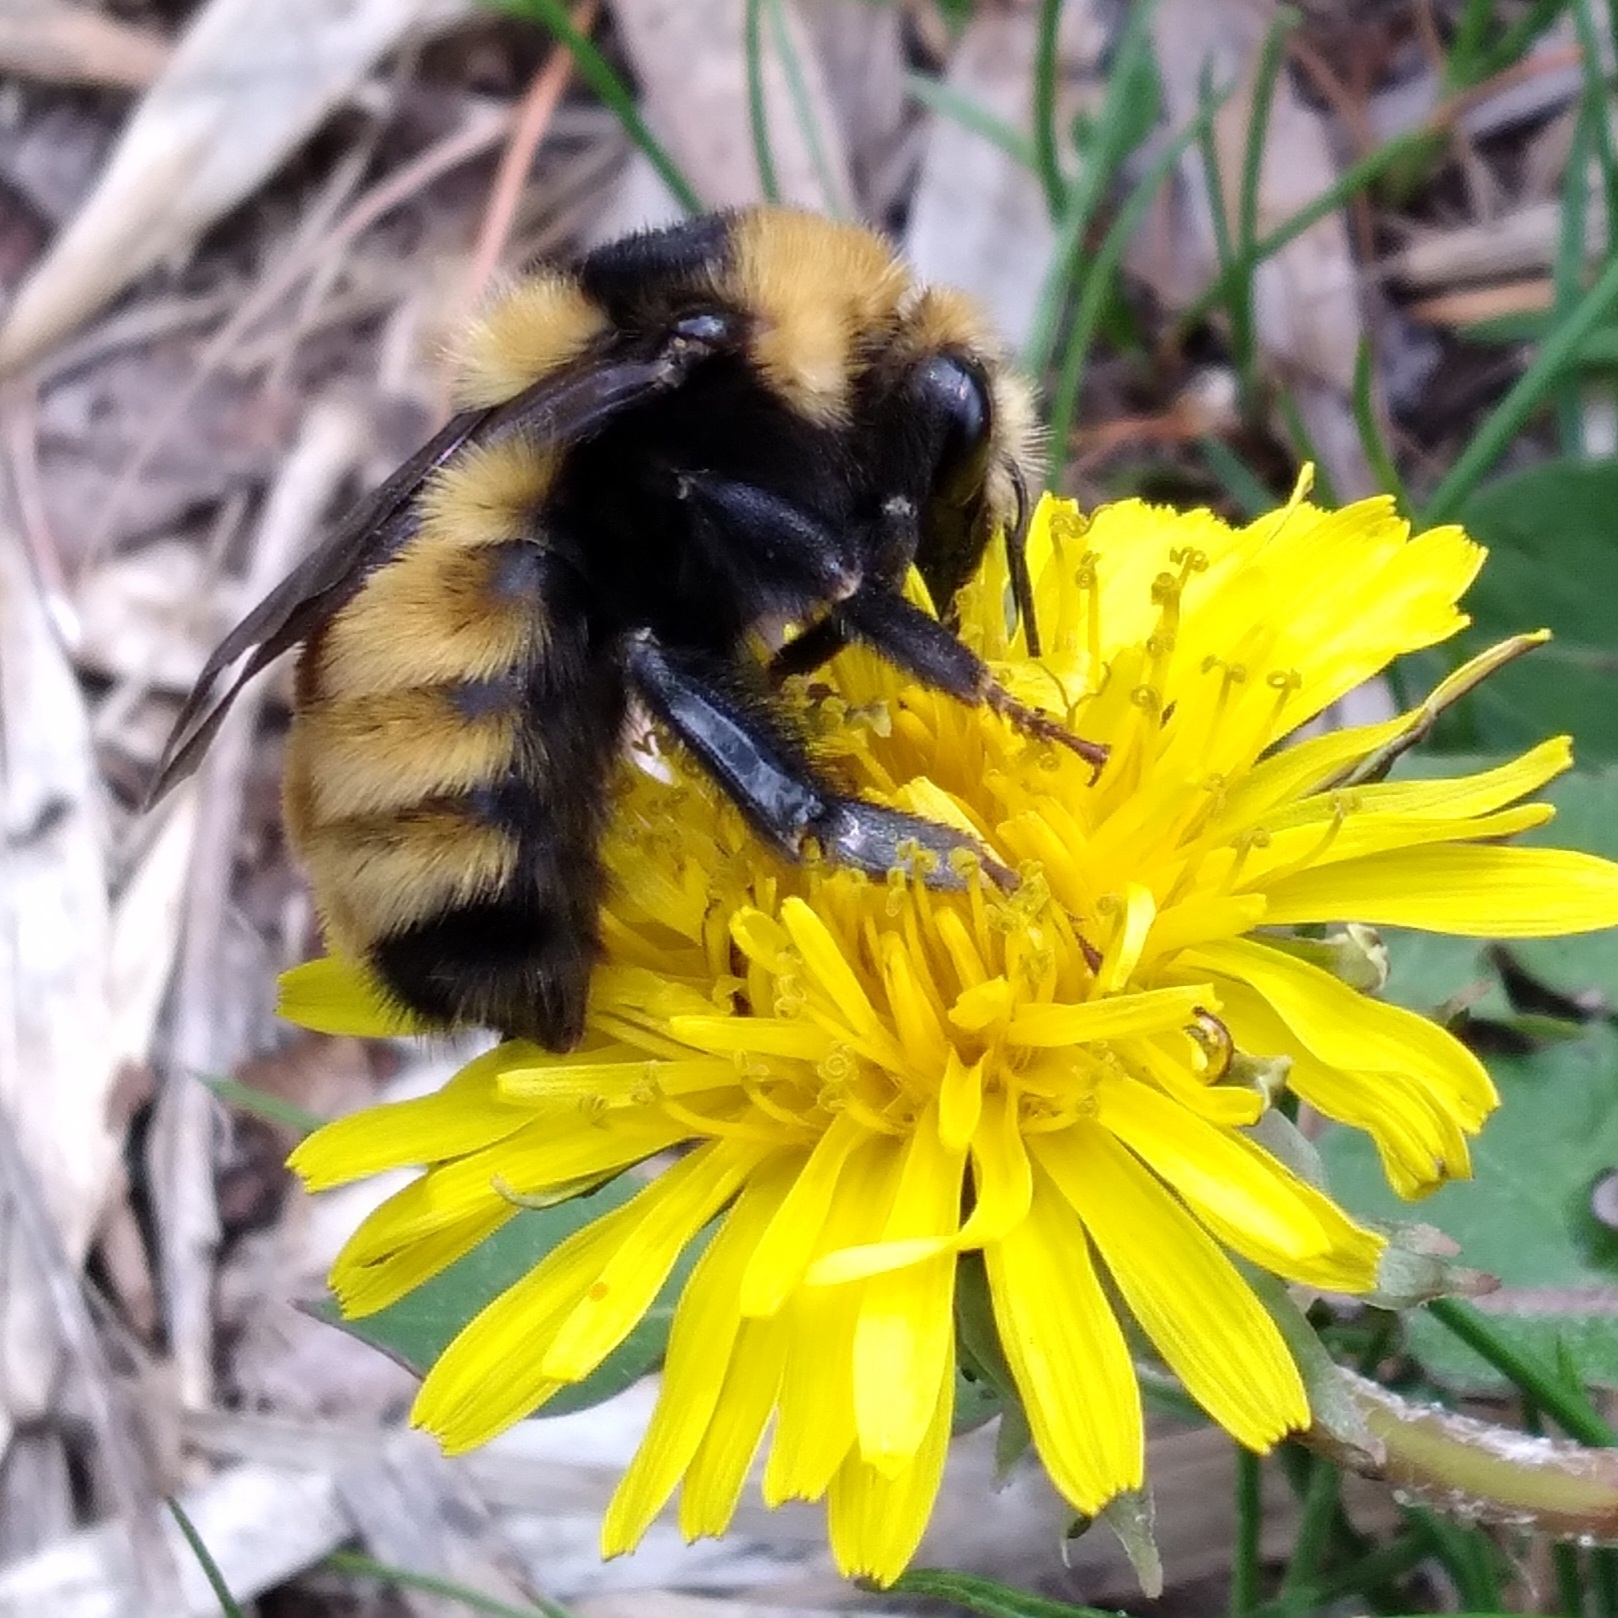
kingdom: Animalia
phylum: Arthropoda
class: Insecta
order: Hymenoptera
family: Apidae
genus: Bombus
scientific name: Bombus borealis
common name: Northern amber bumble bee
